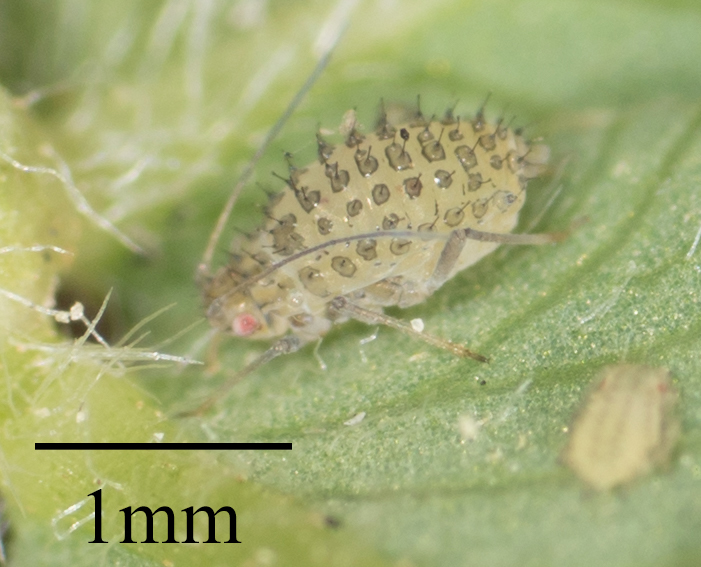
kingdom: Animalia
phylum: Arthropoda
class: Insecta
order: Hemiptera
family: Aphididae
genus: Therioaphis
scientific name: Therioaphis trifolii
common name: Spotted alfalfa aphid
